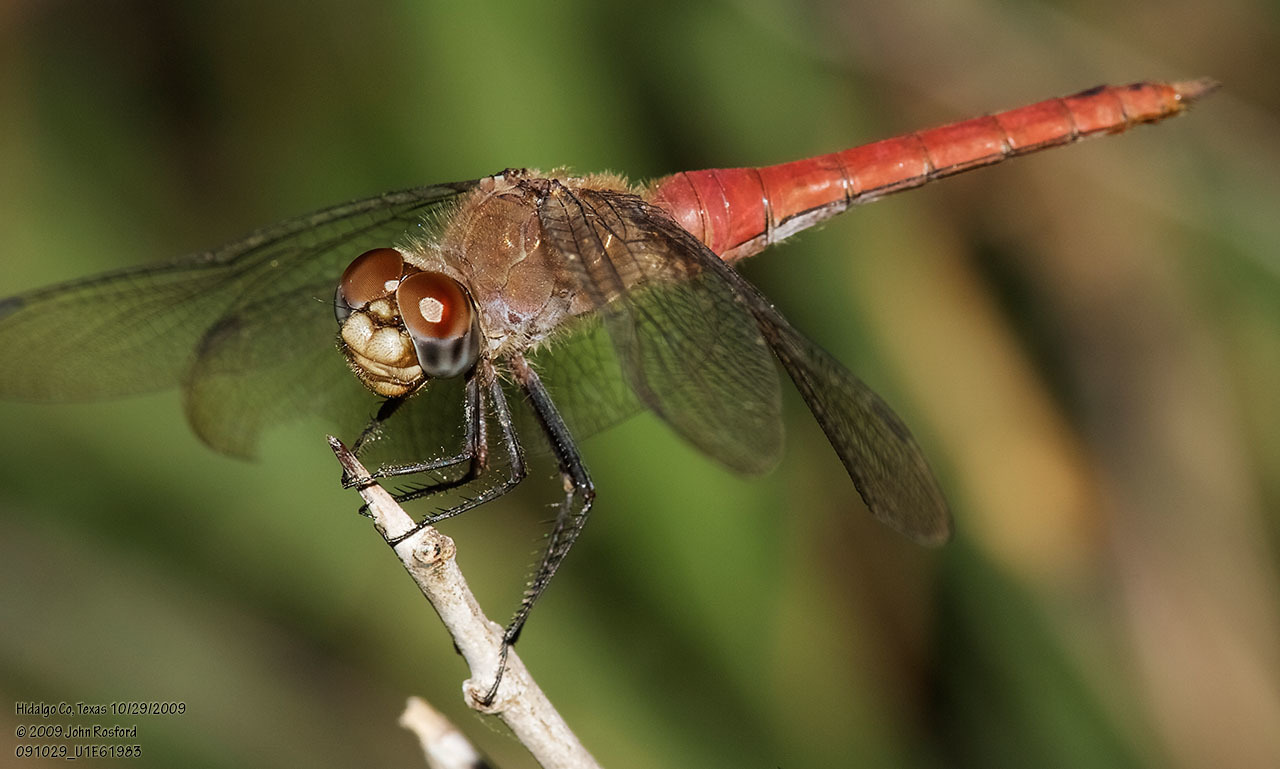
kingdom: Animalia
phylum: Arthropoda
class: Insecta
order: Odonata
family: Libellulidae
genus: Brachymesia
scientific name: Brachymesia furcata
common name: Red-taled pennant
